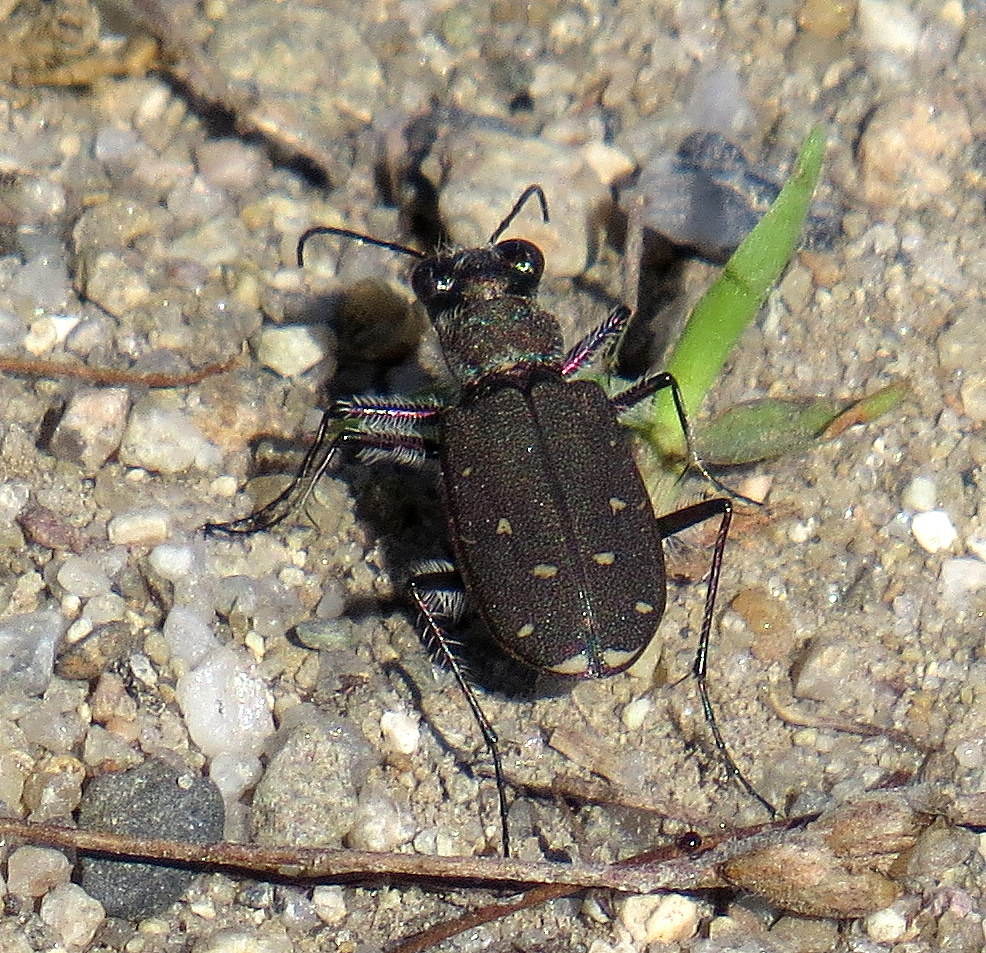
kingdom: Animalia
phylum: Arthropoda
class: Insecta
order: Coleoptera
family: Carabidae
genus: Cicindela
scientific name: Cicindela duodecimguttata
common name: Twelve-spotted tiger beetle
